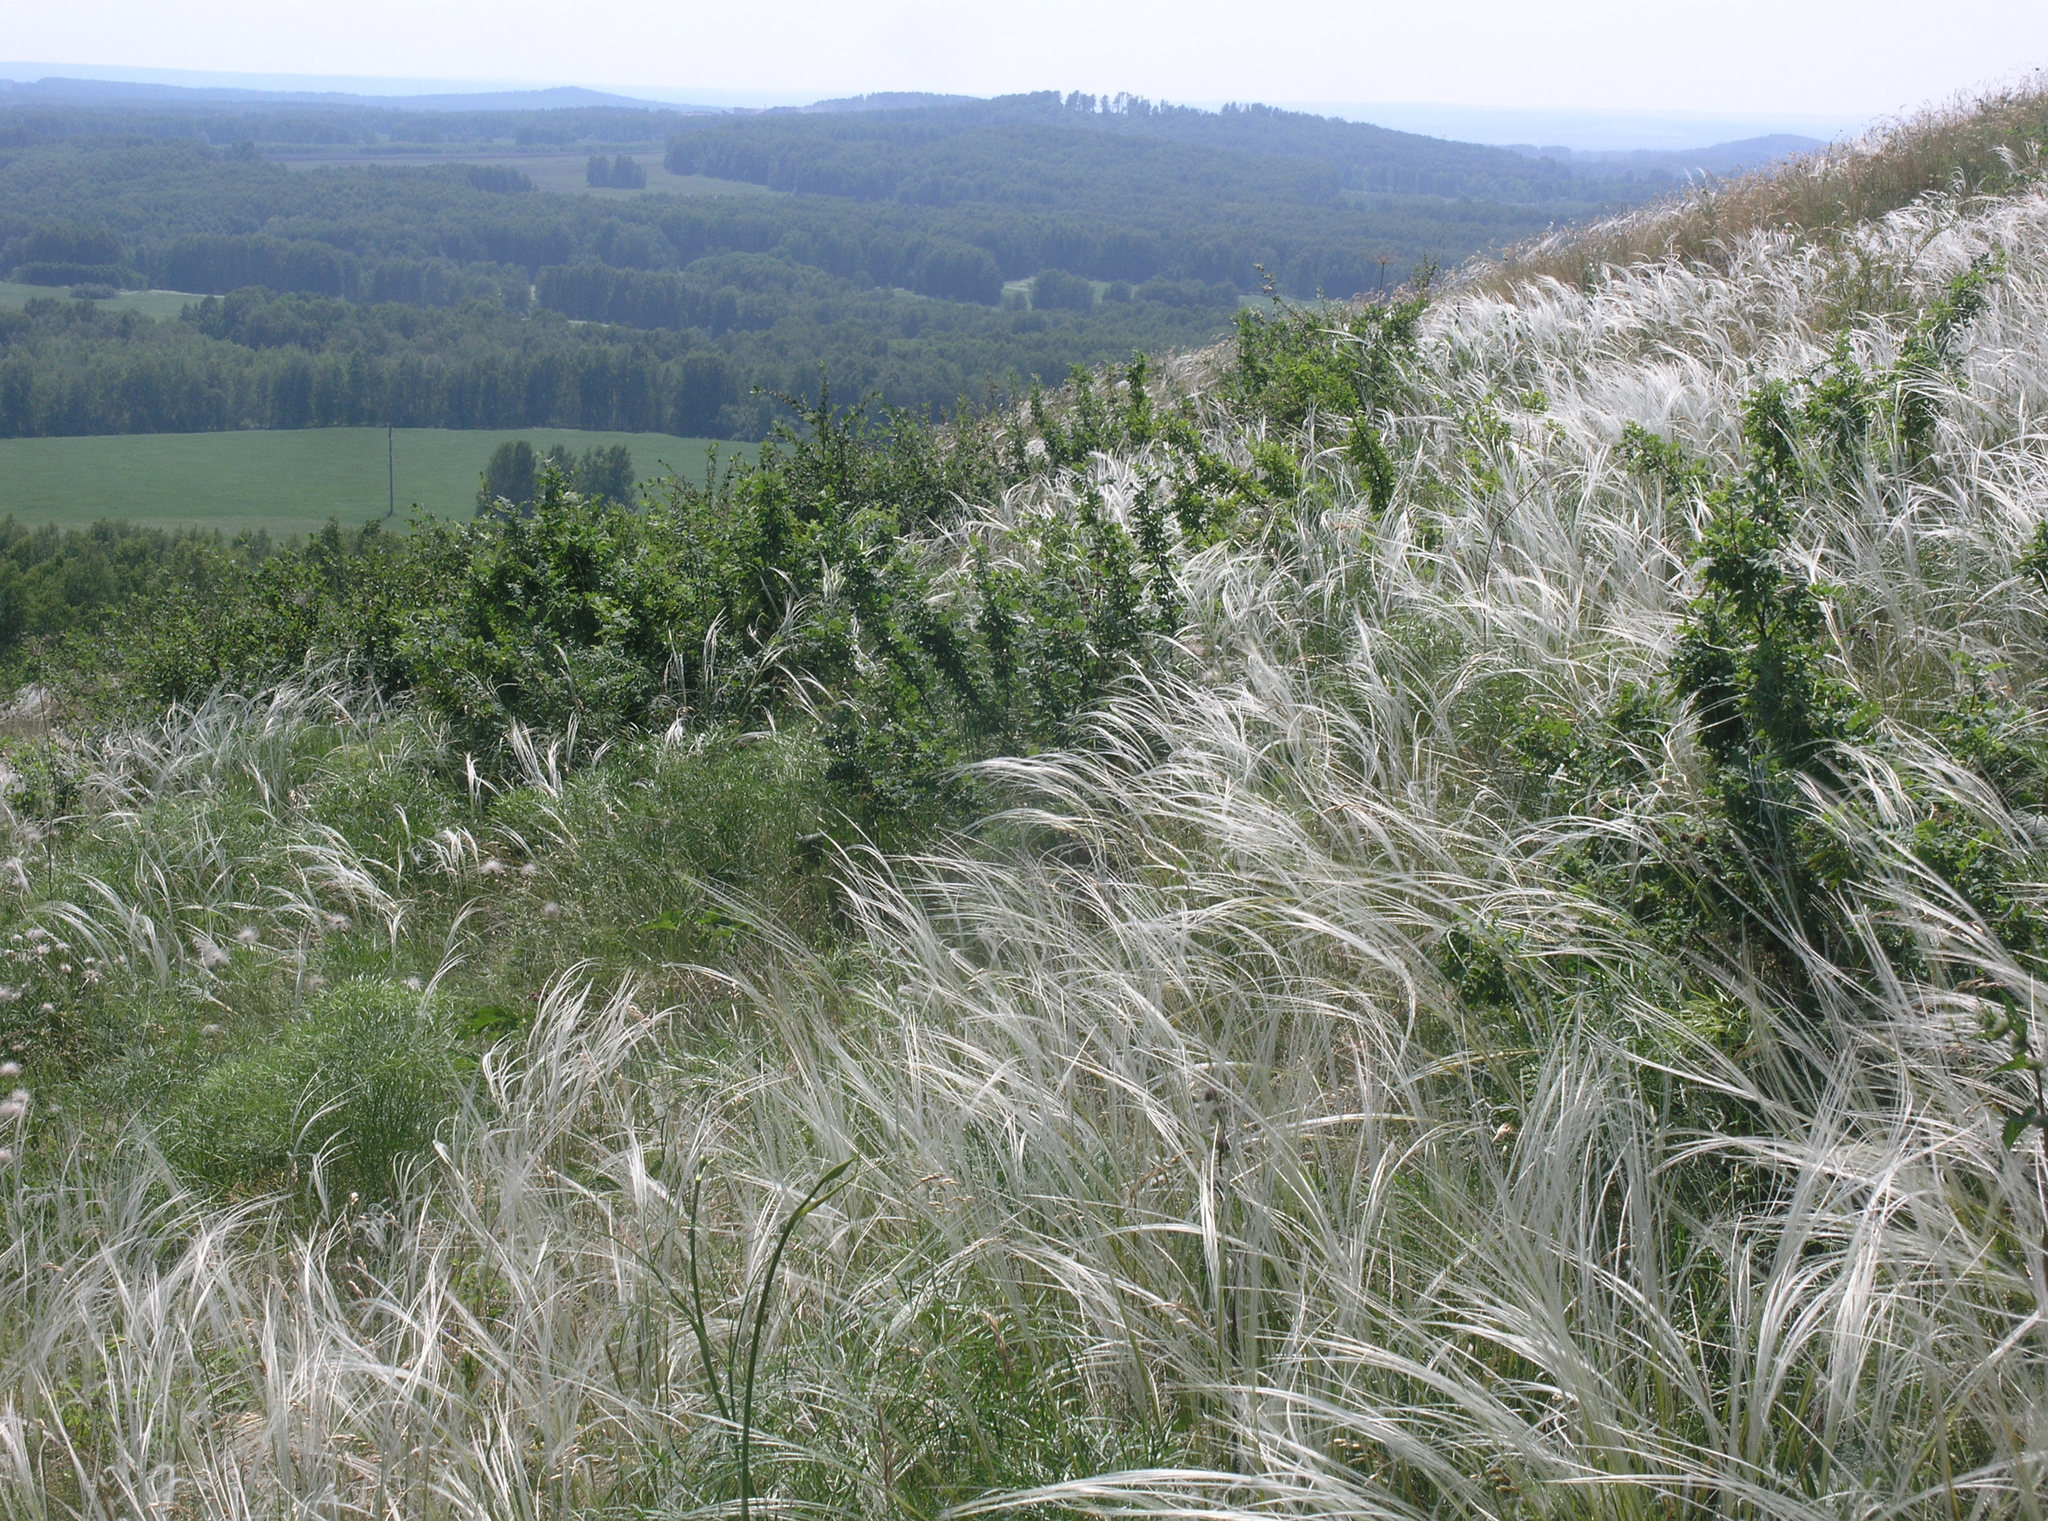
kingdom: Plantae
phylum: Tracheophyta
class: Liliopsida
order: Poales
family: Poaceae
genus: Stipa
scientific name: Stipa pennata
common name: European feather grass
